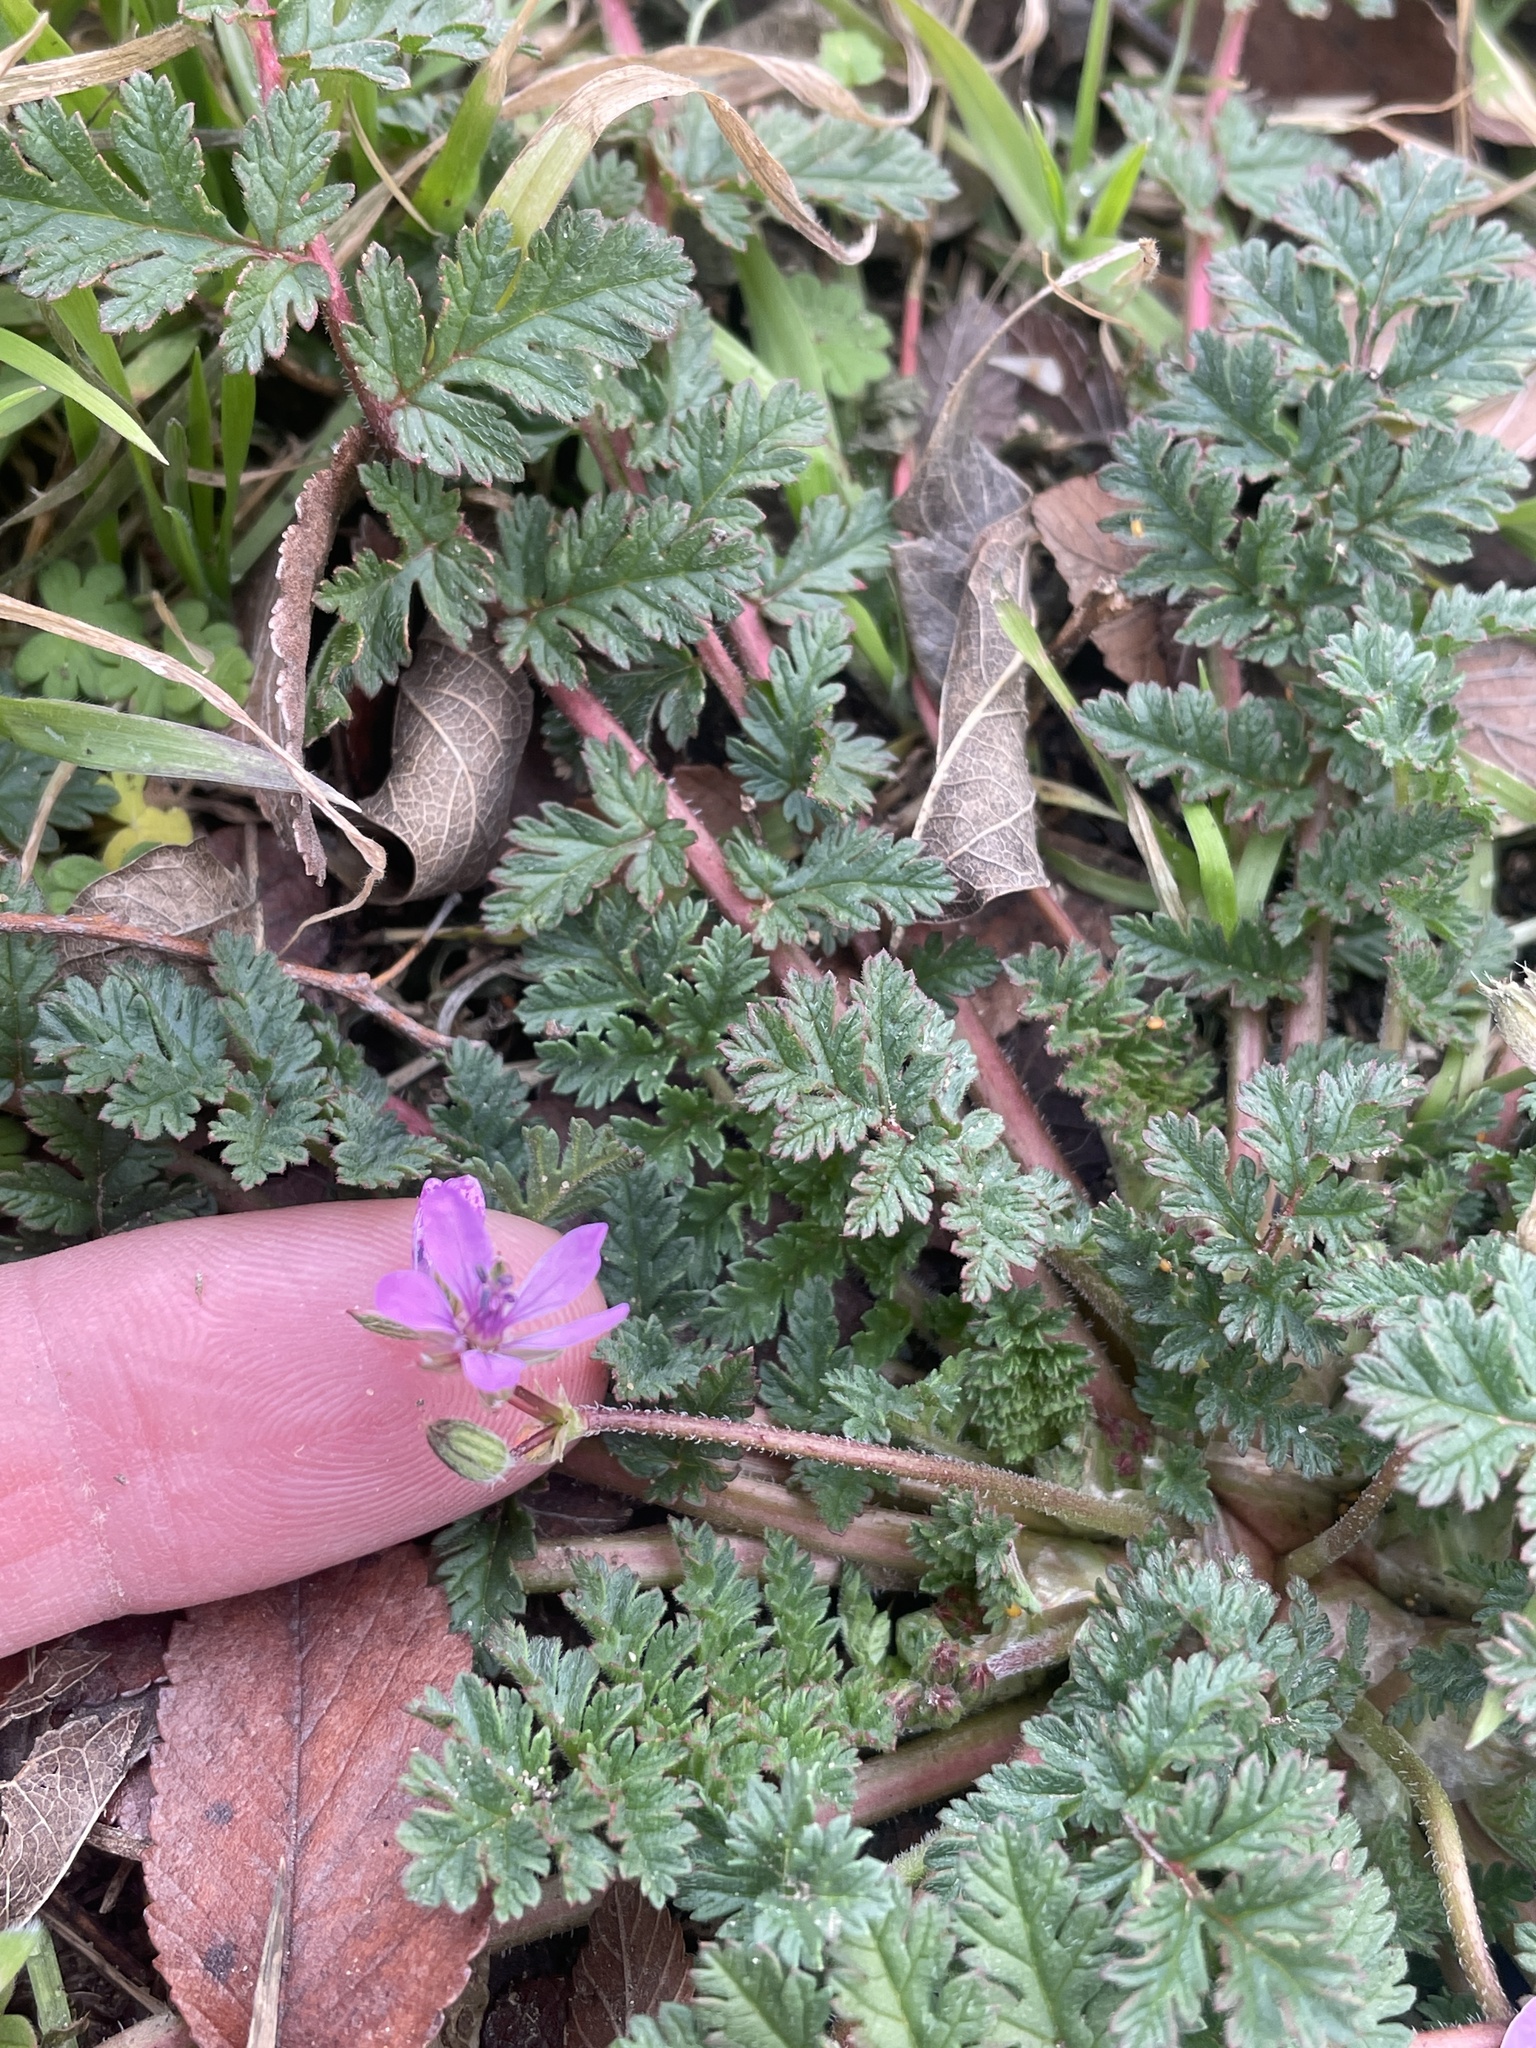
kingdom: Plantae
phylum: Tracheophyta
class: Magnoliopsida
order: Geraniales
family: Geraniaceae
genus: Erodium
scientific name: Erodium cicutarium
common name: Common stork's-bill
